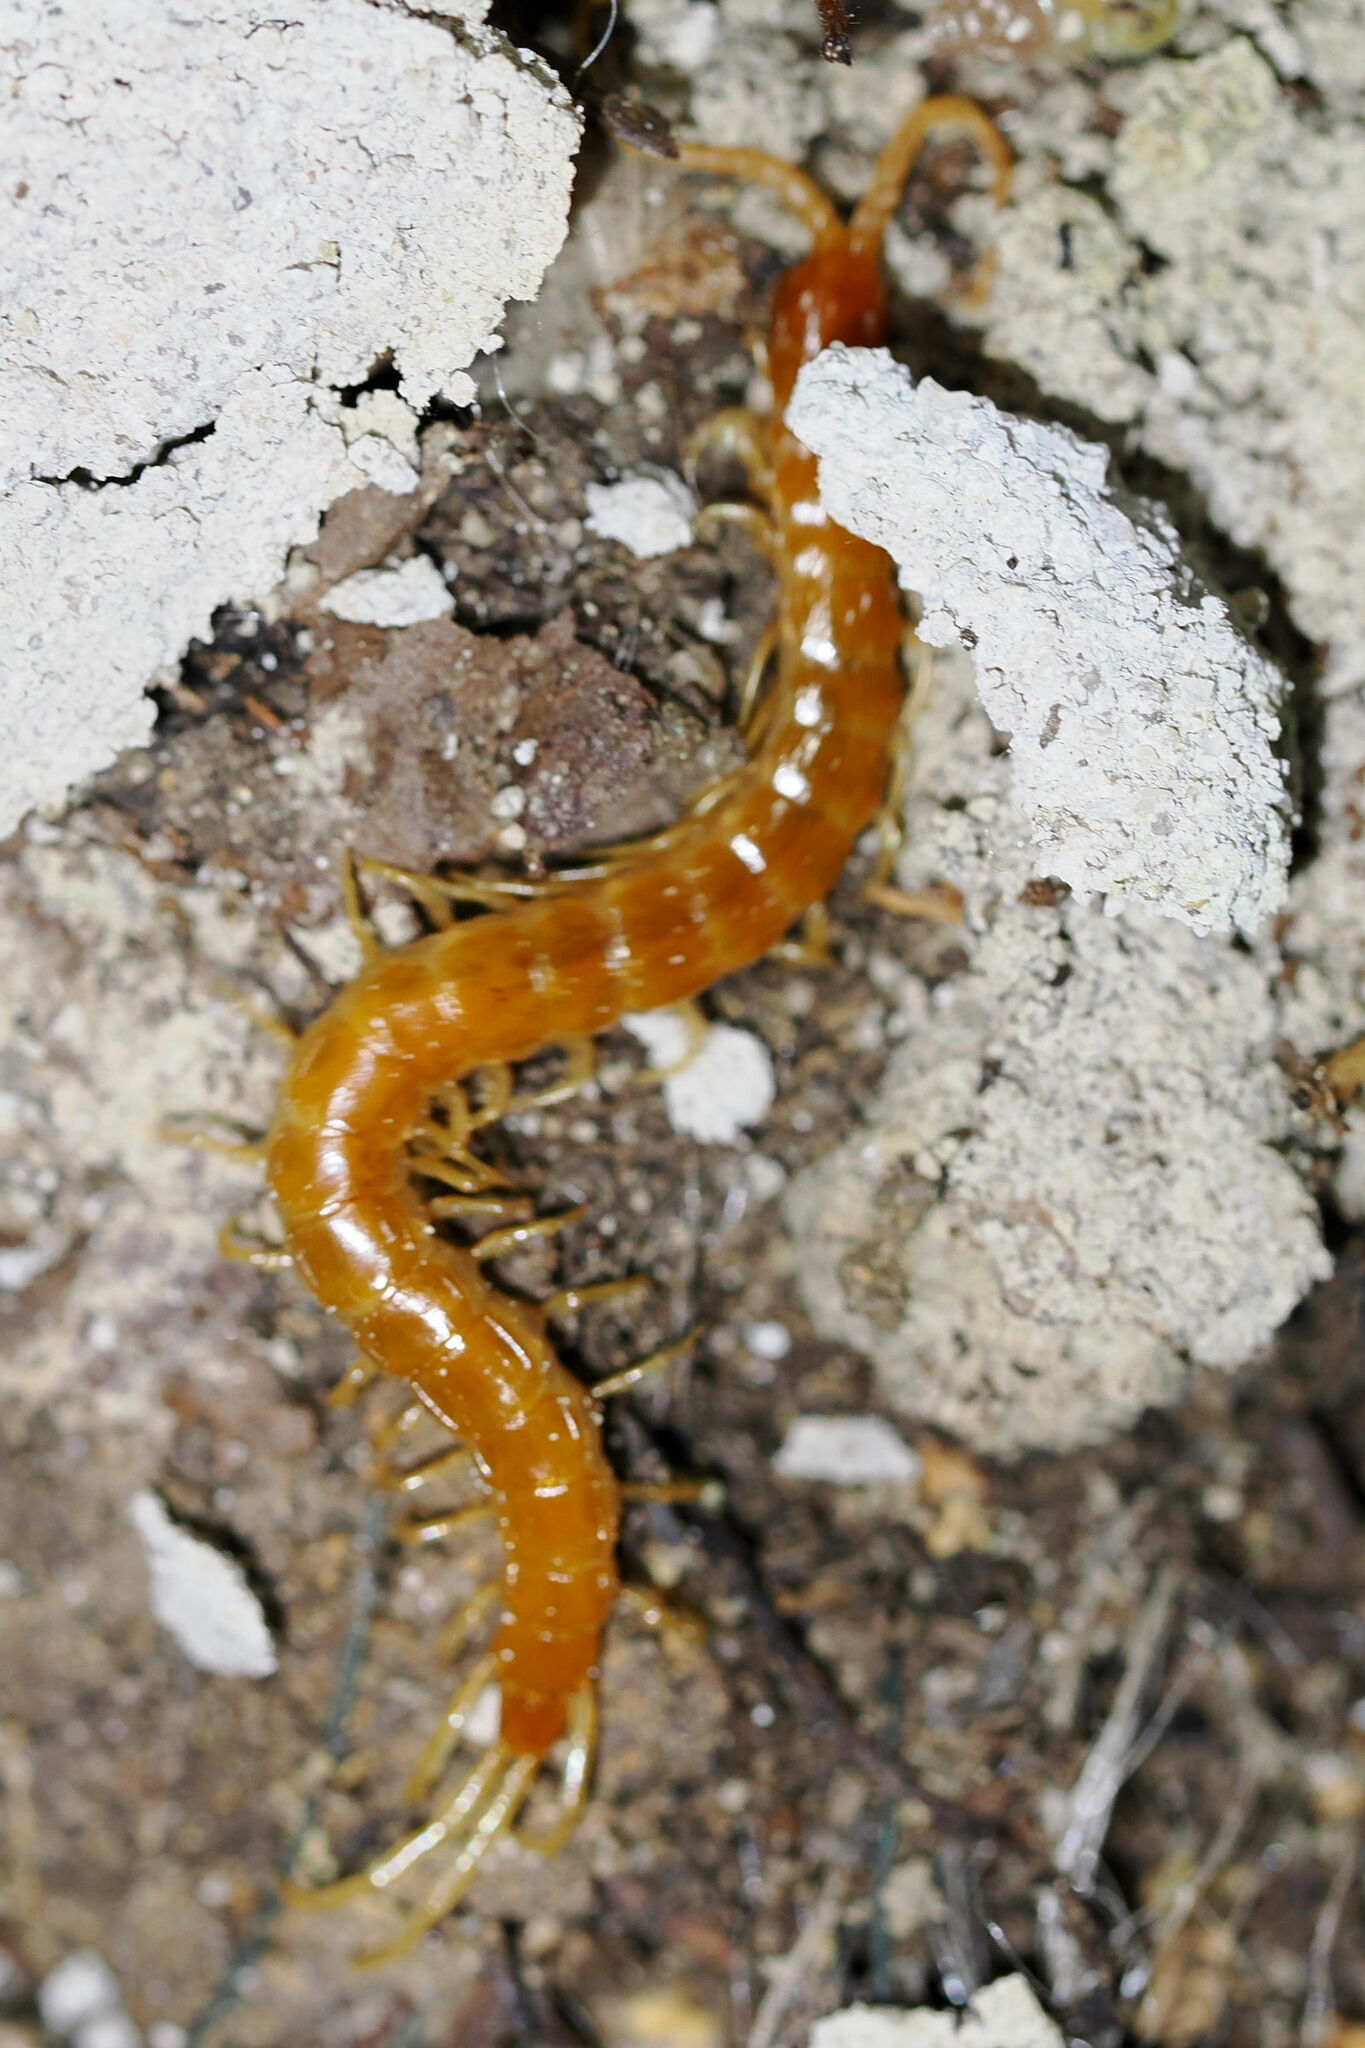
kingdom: Animalia
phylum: Arthropoda
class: Chilopoda
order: Scolopendromorpha
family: Scolopocryptopidae
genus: Scolopocryptops
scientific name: Scolopocryptops sexspinosus
